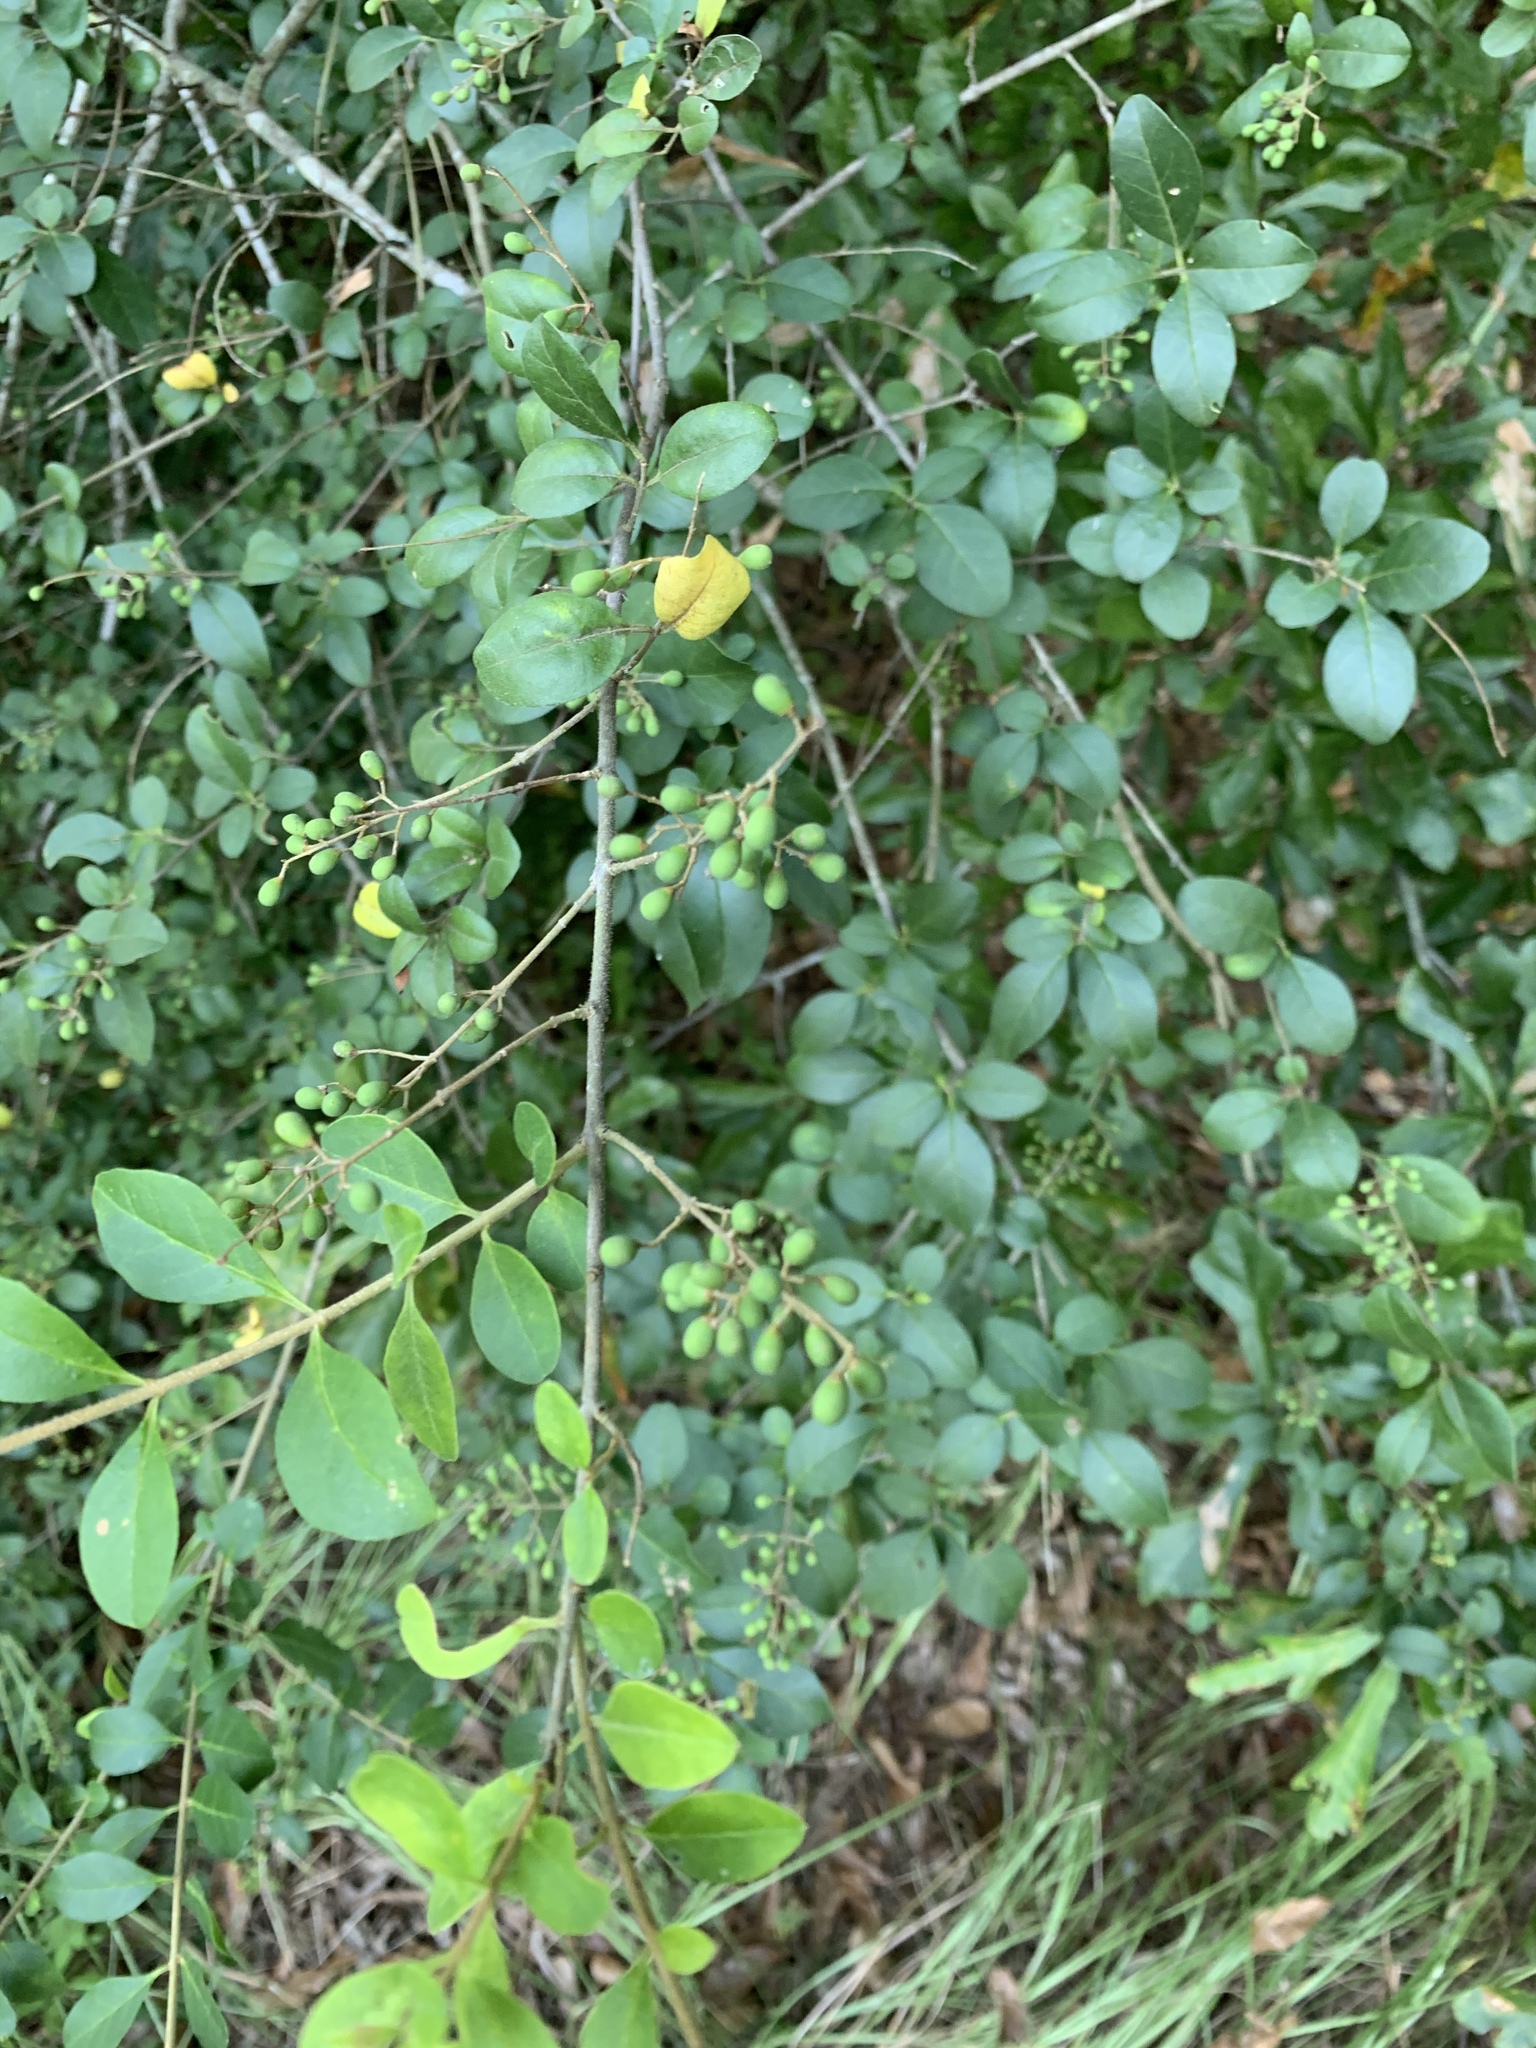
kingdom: Plantae
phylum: Tracheophyta
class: Magnoliopsida
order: Lamiales
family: Oleaceae
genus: Ligustrum
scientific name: Ligustrum sinense
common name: Chinese privet
